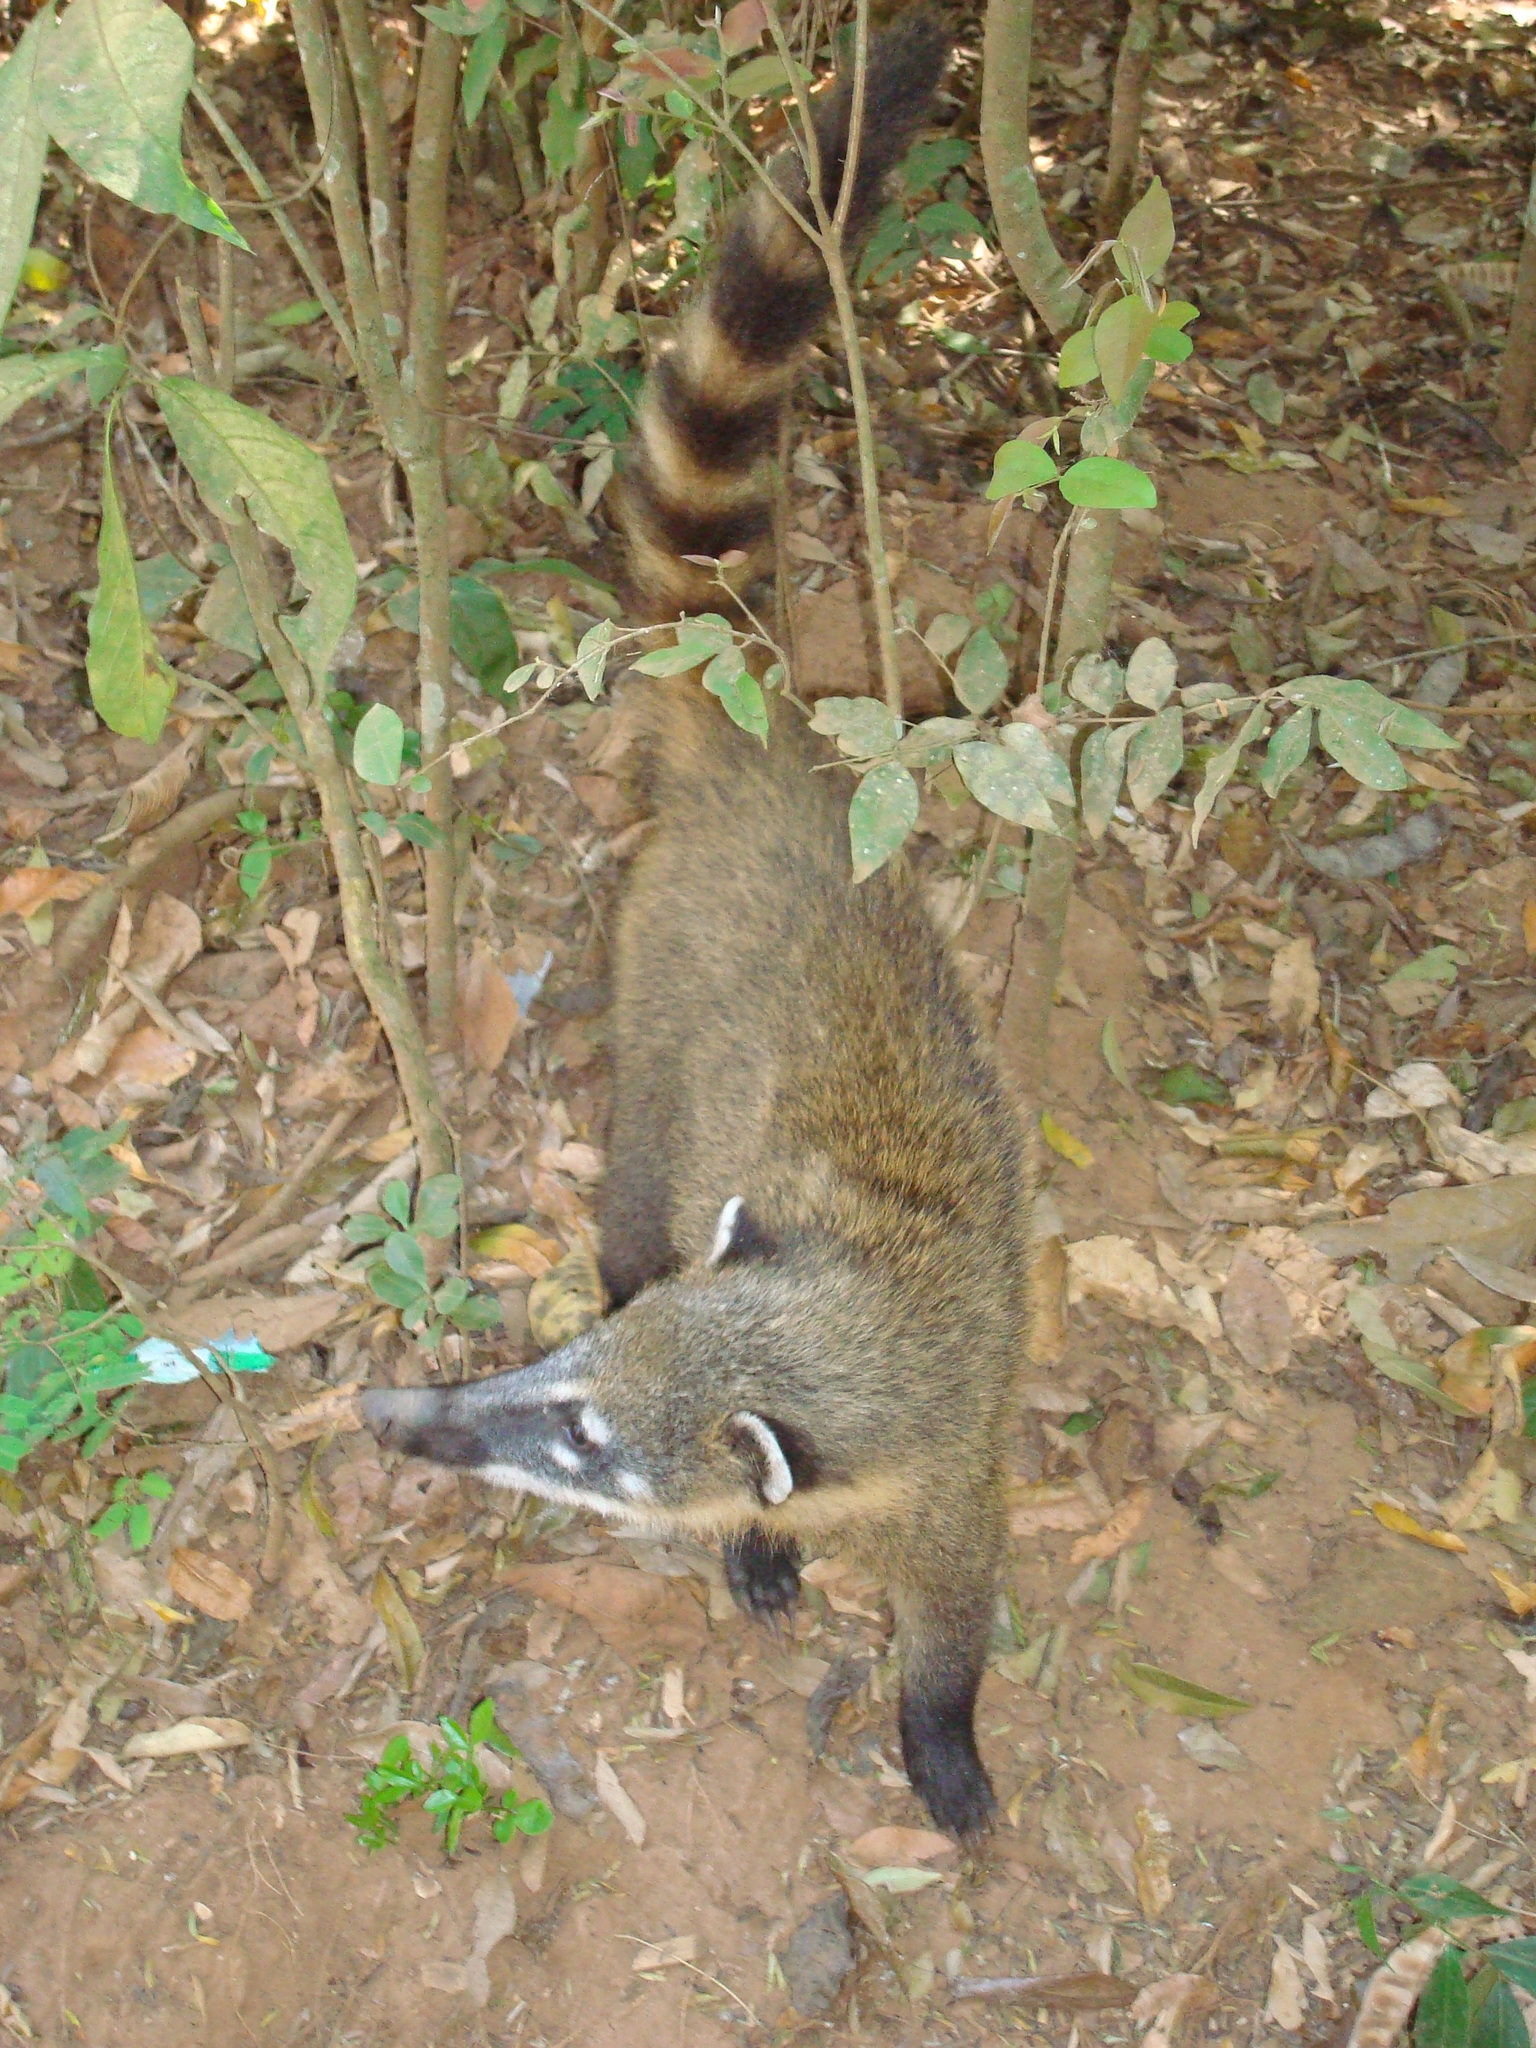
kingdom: Animalia
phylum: Chordata
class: Mammalia
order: Carnivora
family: Procyonidae
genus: Nasua
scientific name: Nasua nasua
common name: South american coati
